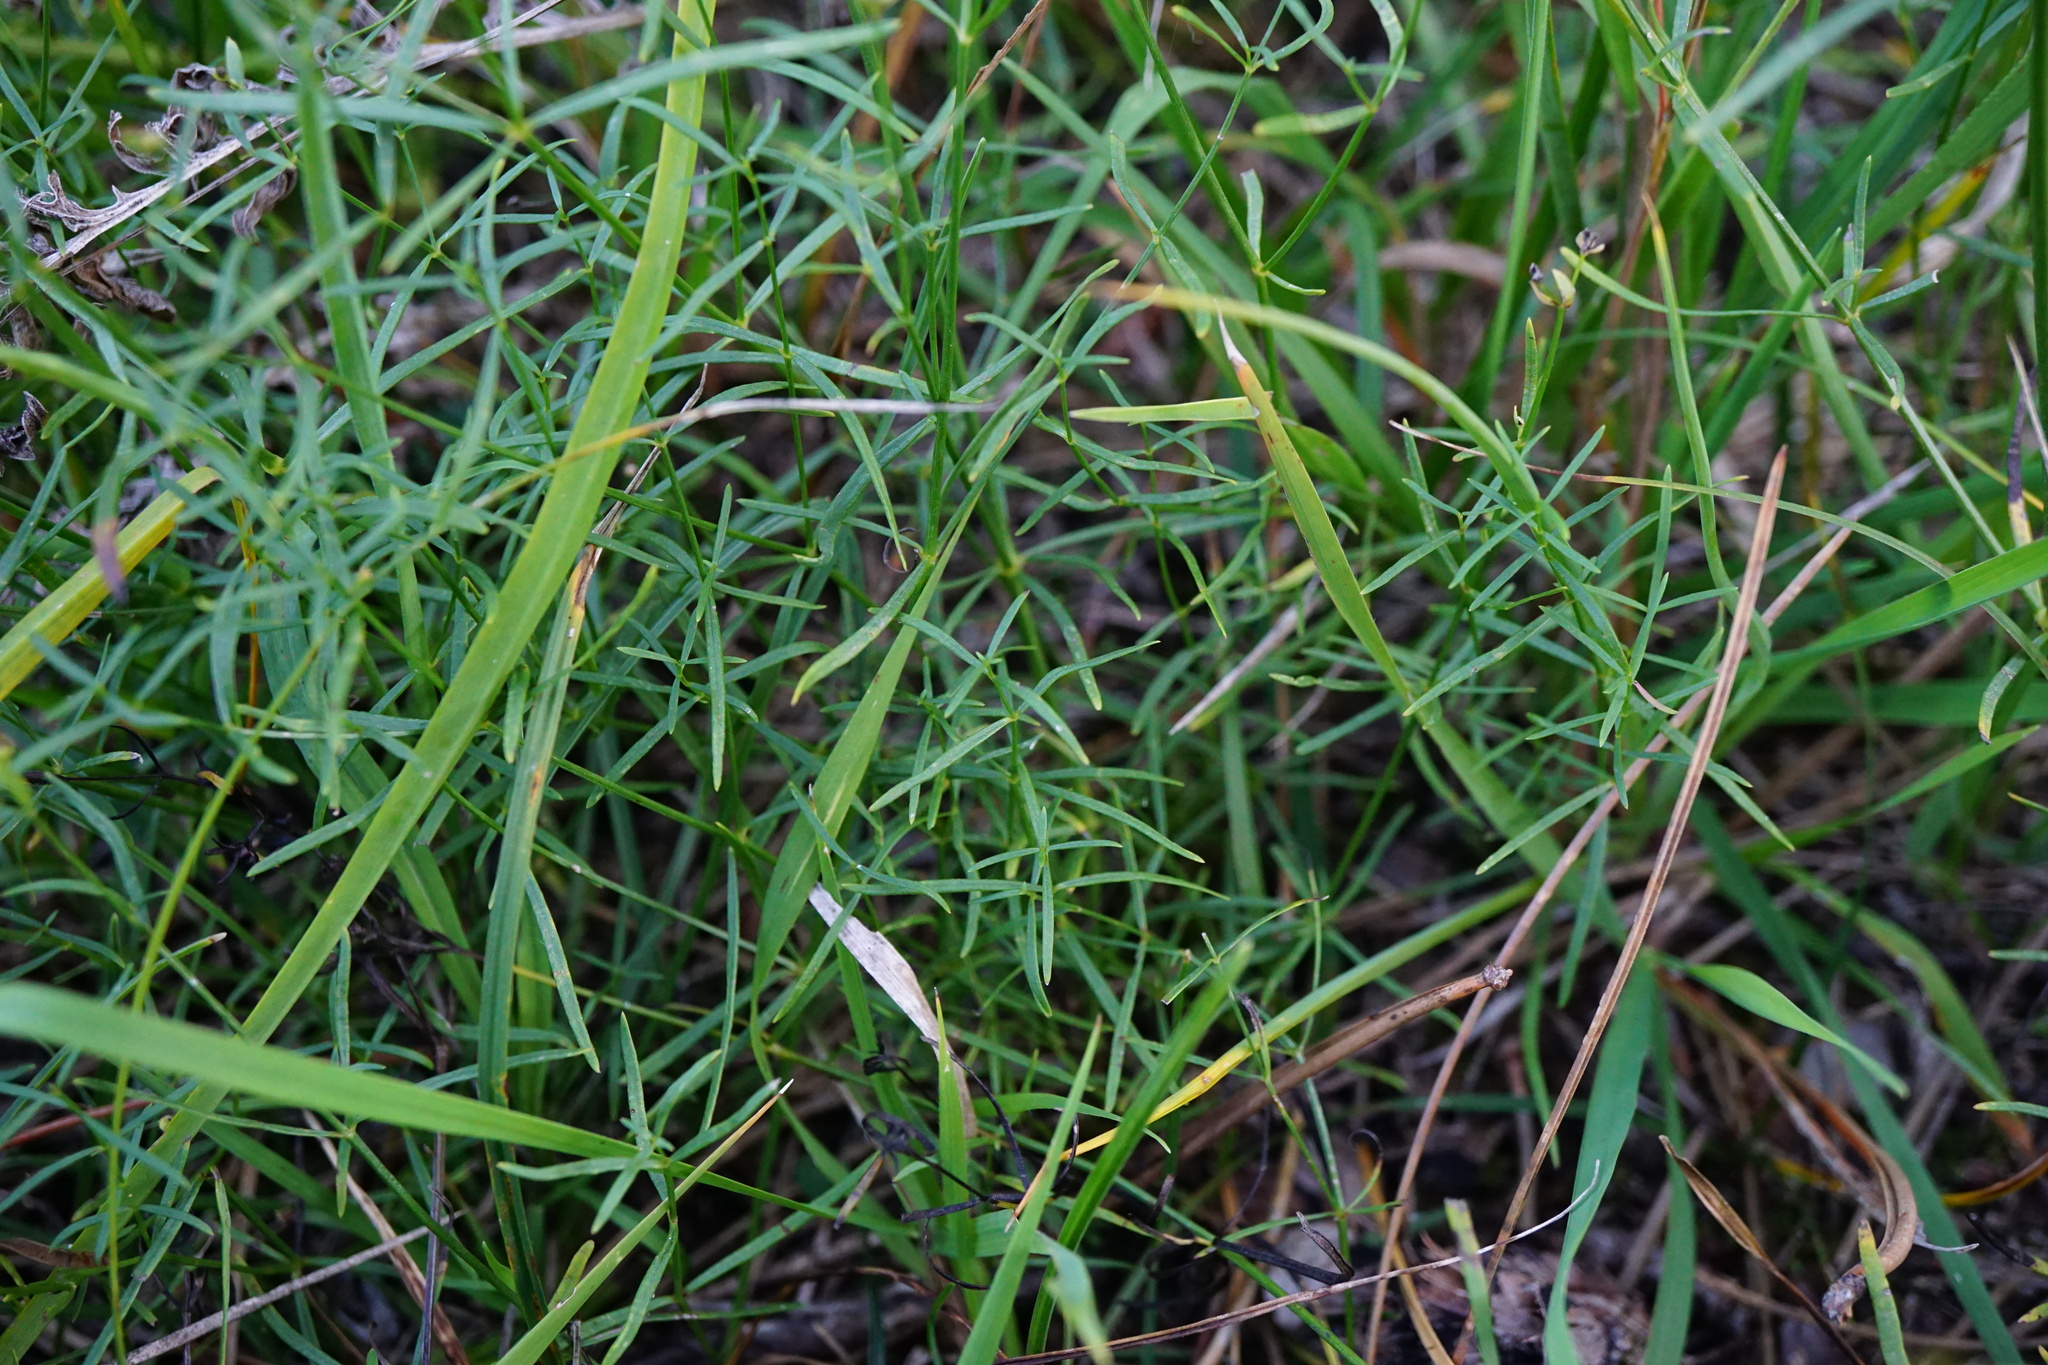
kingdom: Plantae
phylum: Tracheophyta
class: Magnoliopsida
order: Gentianales
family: Rubiaceae
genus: Asperula
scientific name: Asperula tinctoria
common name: Dyer's woodruff
